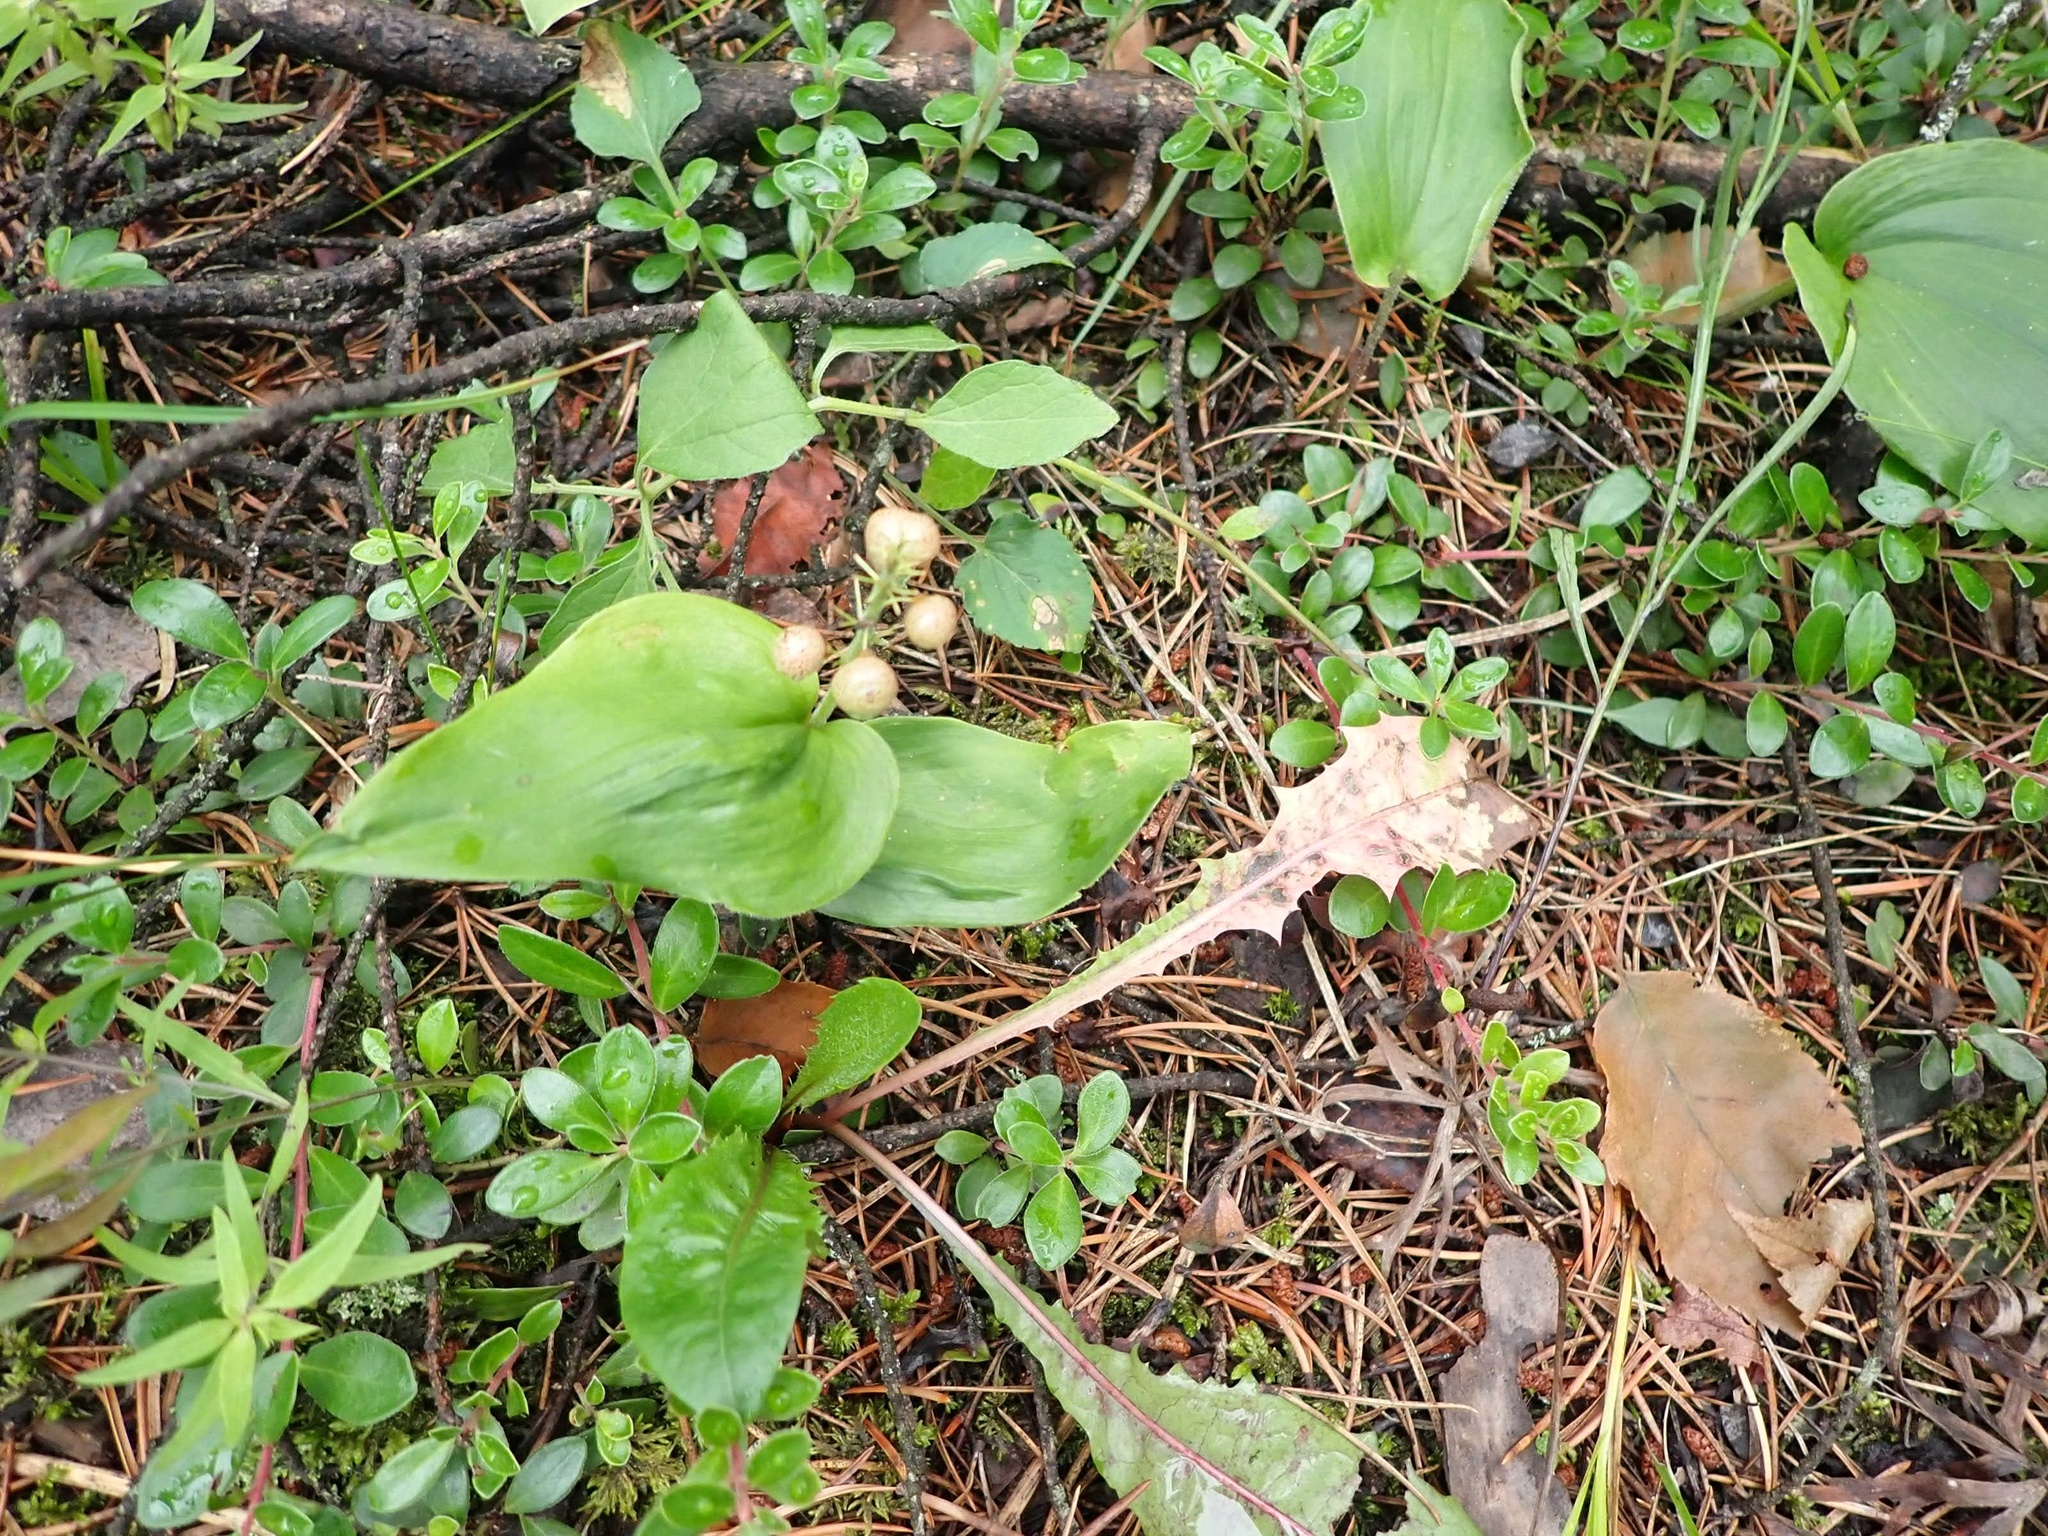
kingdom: Plantae
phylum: Tracheophyta
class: Liliopsida
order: Asparagales
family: Asparagaceae
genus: Maianthemum
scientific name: Maianthemum canadense
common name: False lily-of-the-valley
